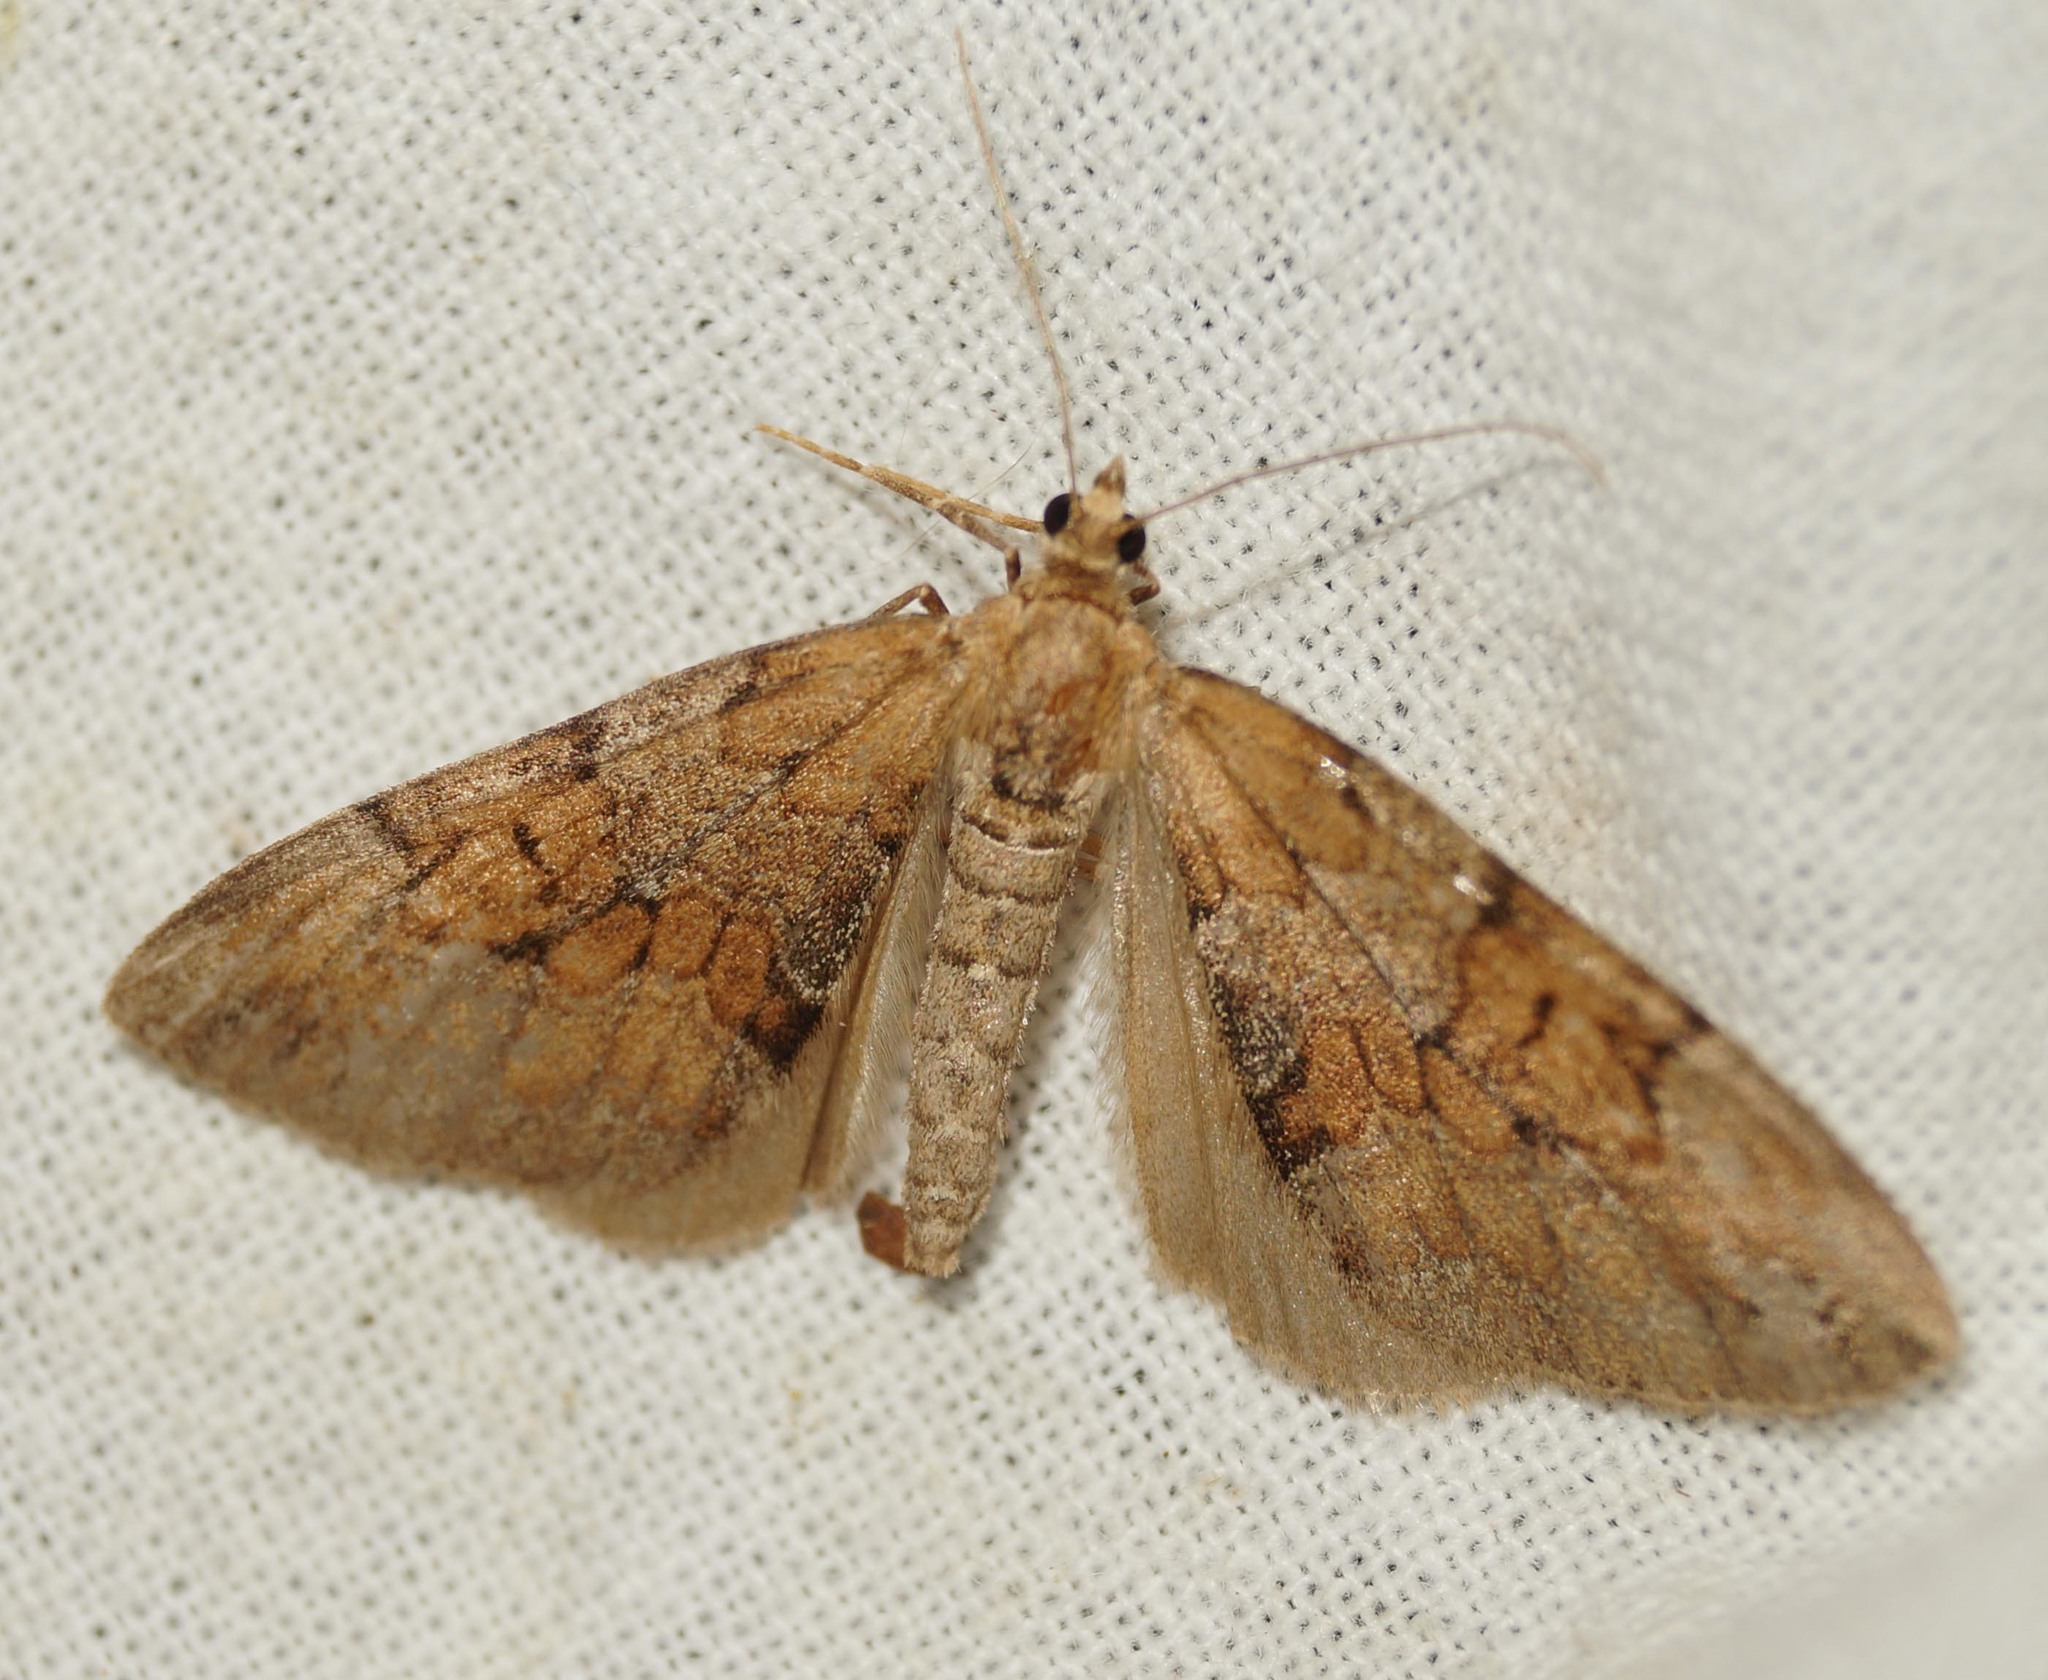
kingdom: Animalia
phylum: Arthropoda
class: Insecta
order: Lepidoptera
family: Geometridae
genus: Thera
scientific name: Thera obeliscata
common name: Grey pine carpet
